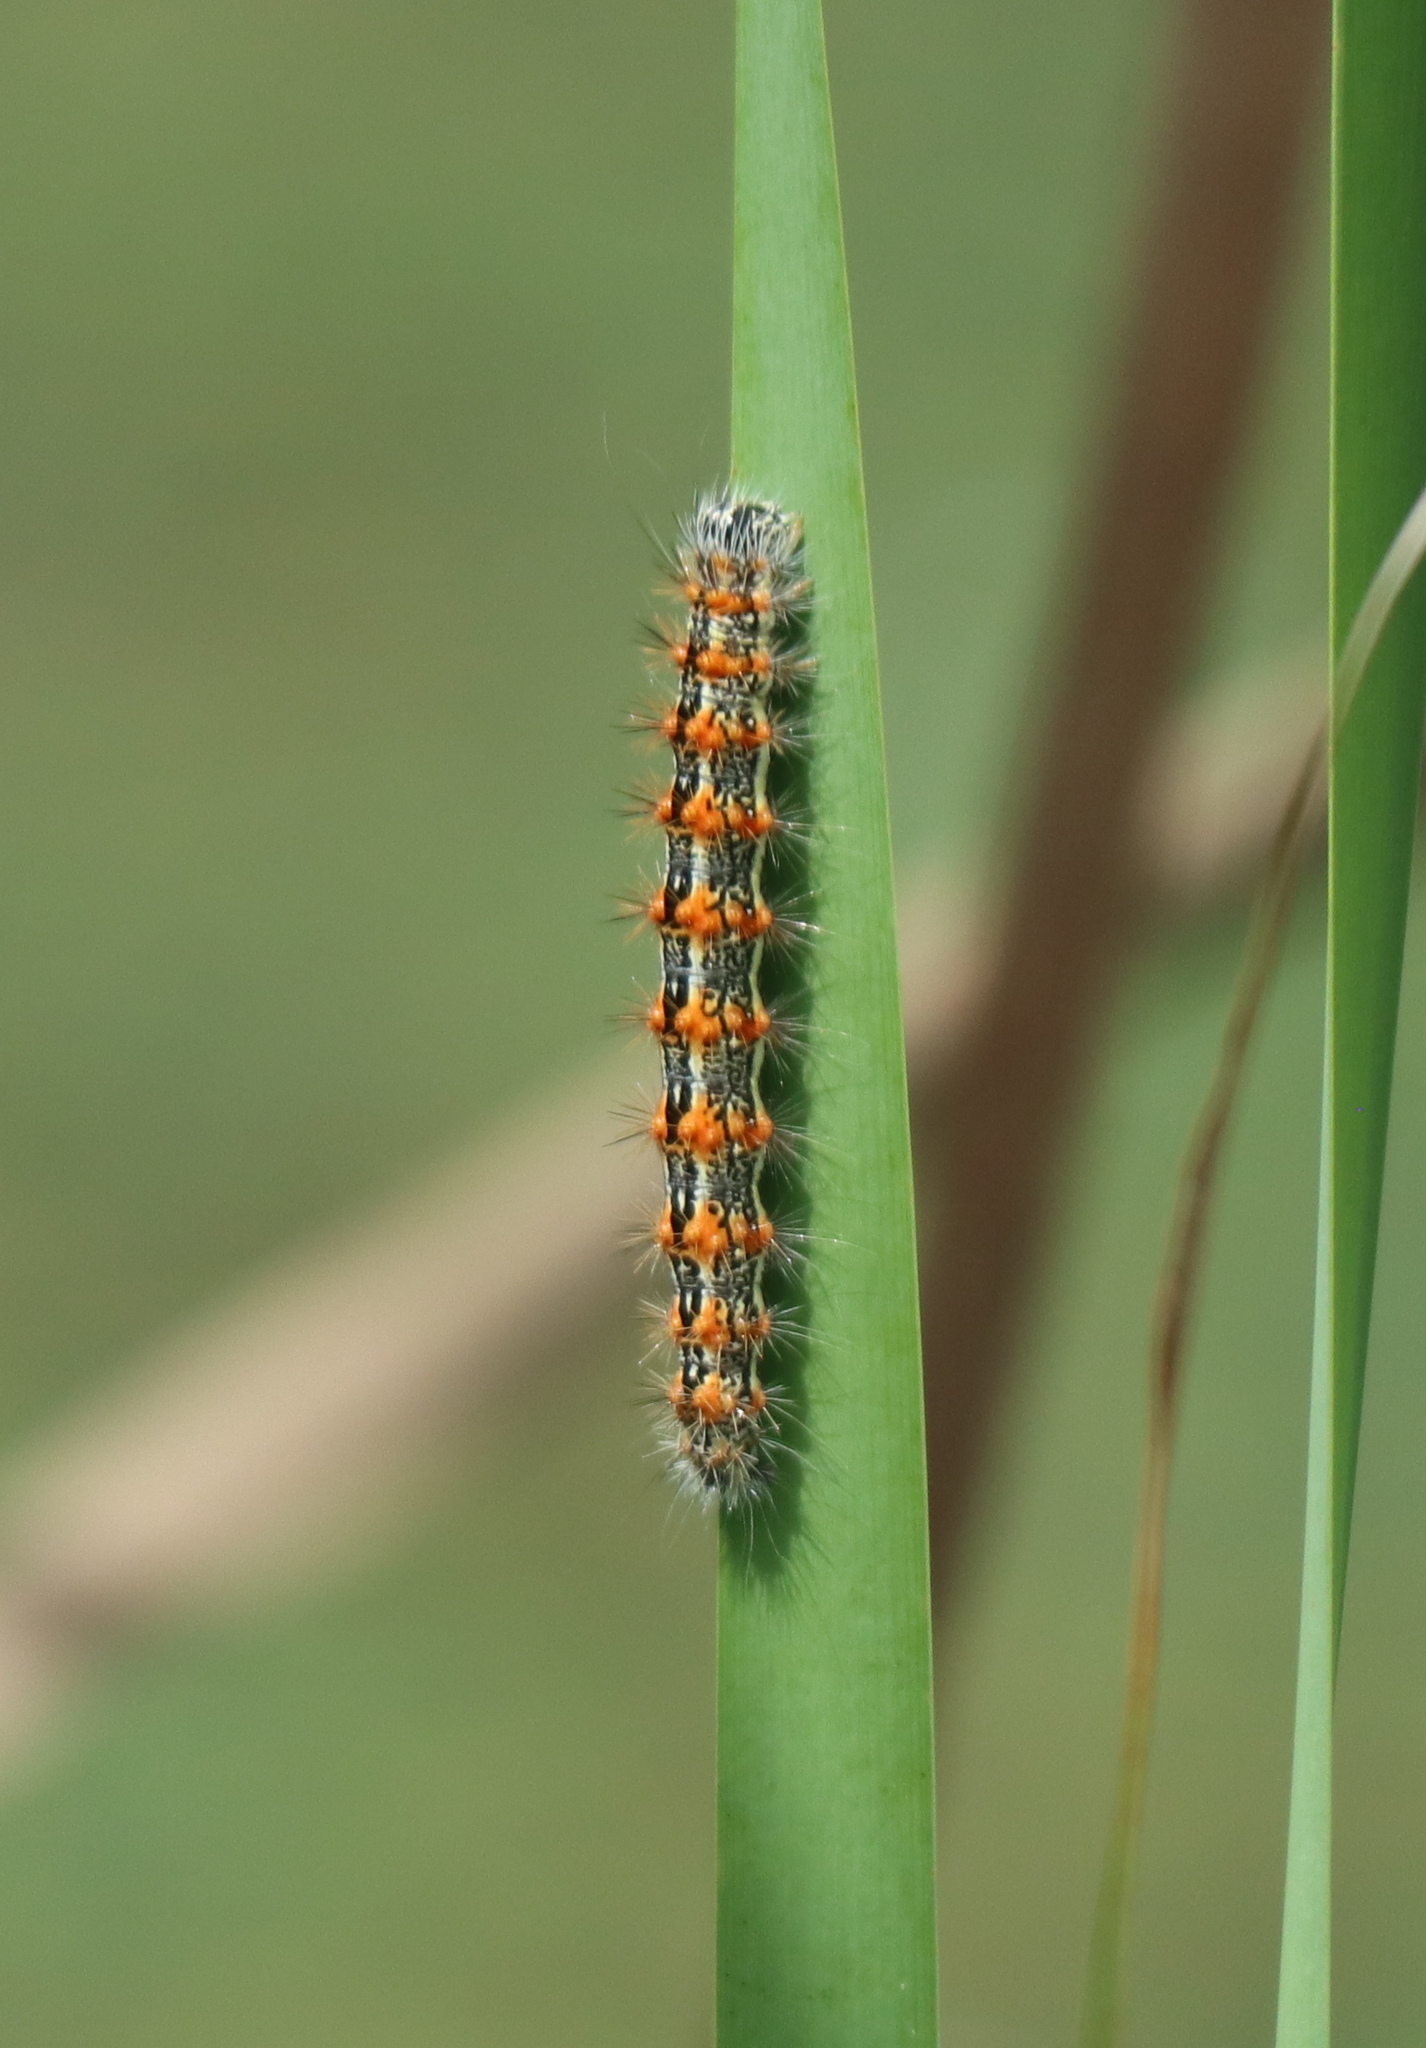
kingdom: Animalia
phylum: Arthropoda
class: Insecta
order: Lepidoptera
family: Noctuidae
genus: Acronicta
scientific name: Acronicta insularis
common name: Henry's marsh moth
